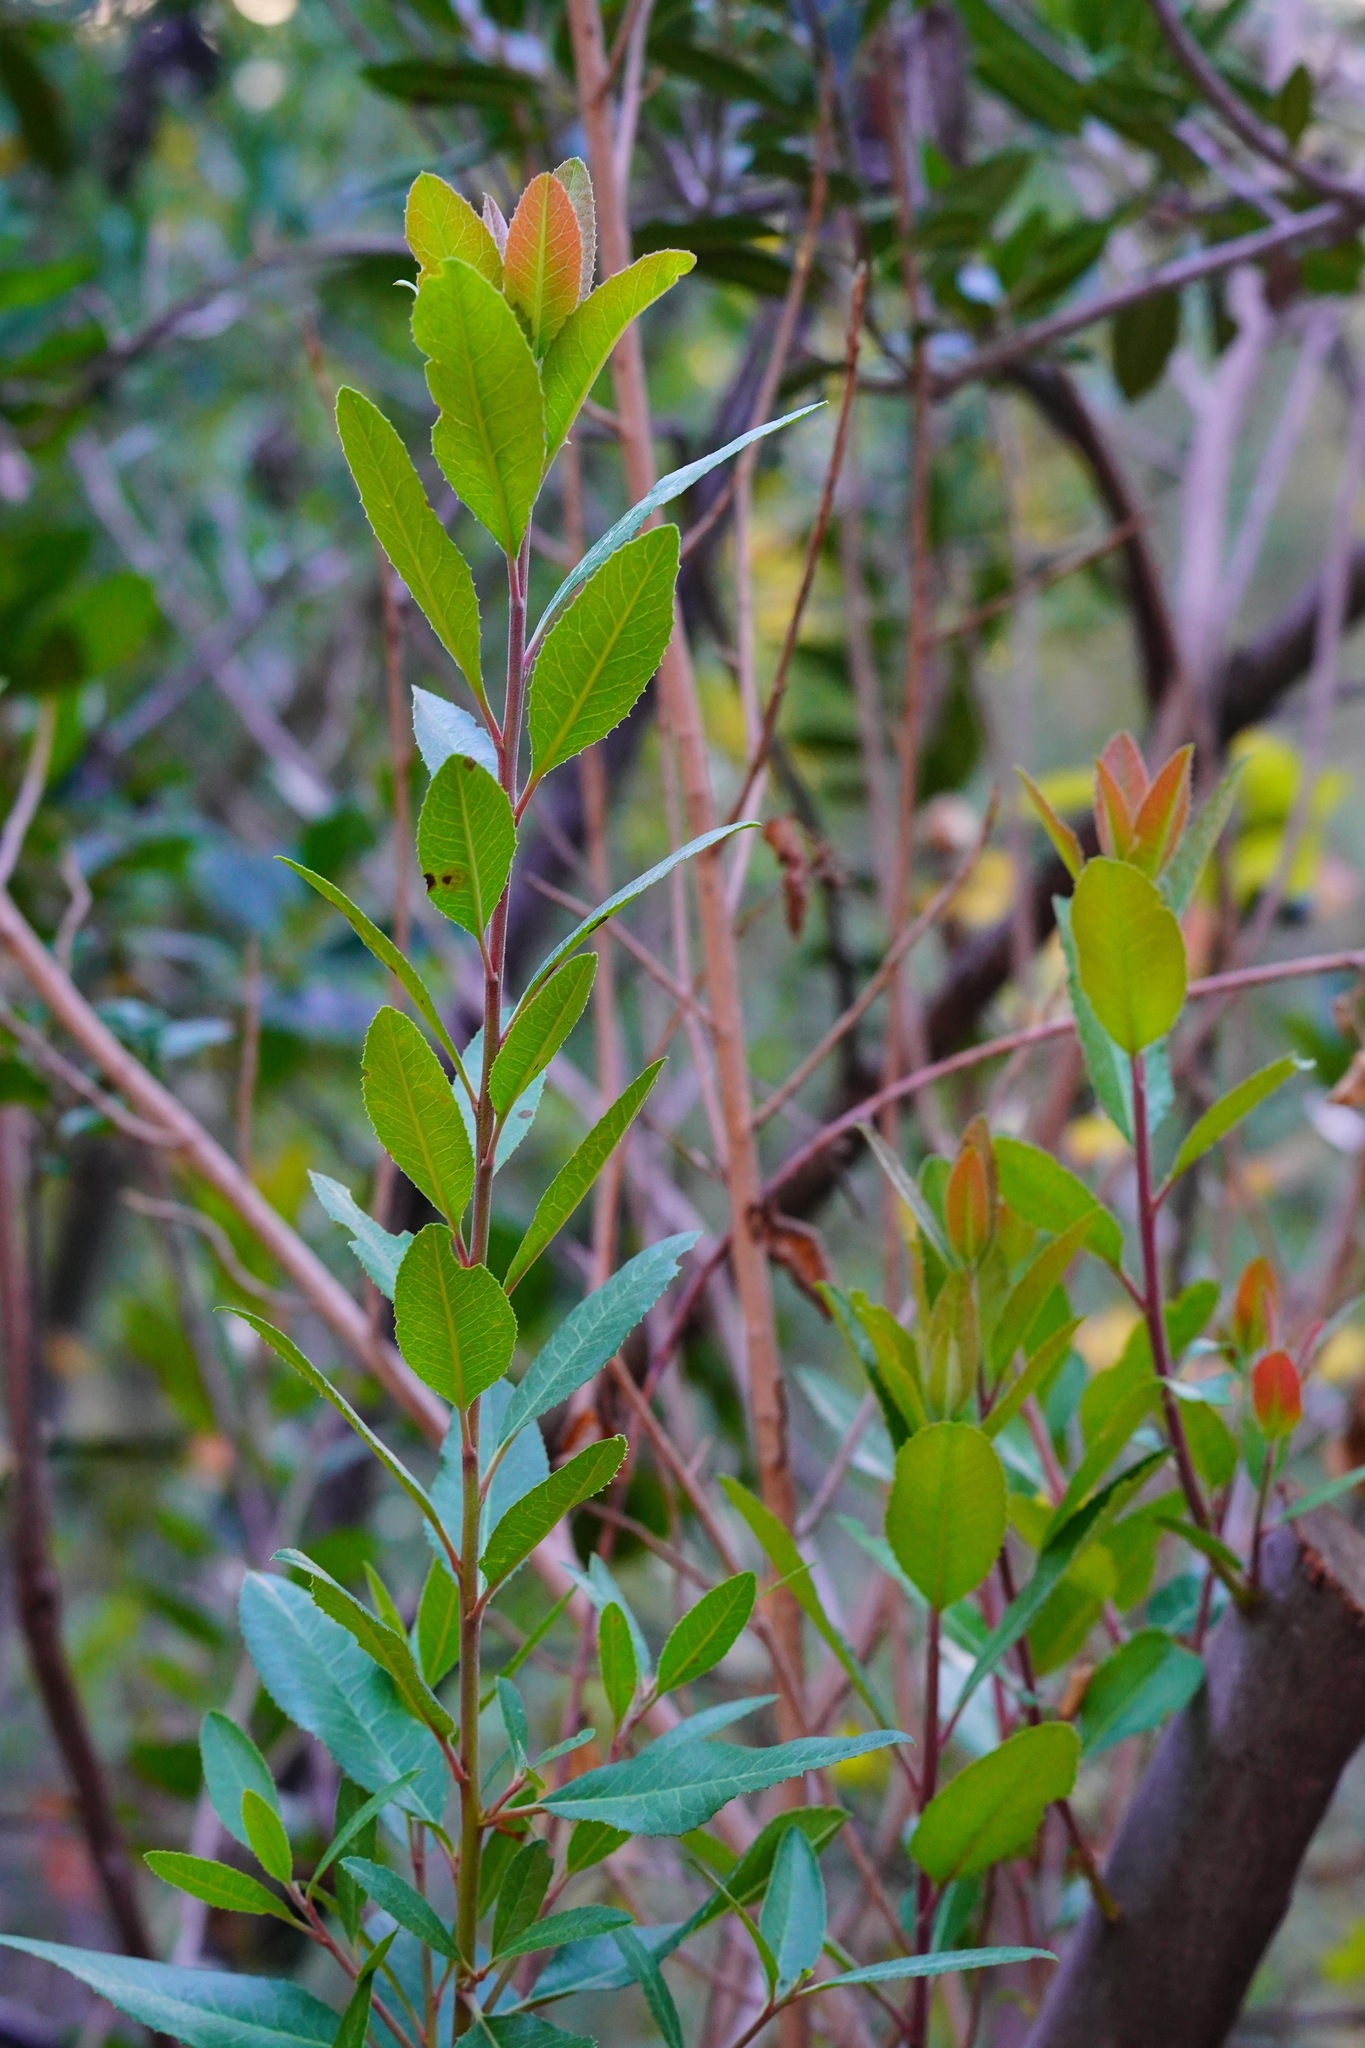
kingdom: Plantae
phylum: Tracheophyta
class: Magnoliopsida
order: Rosales
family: Rosaceae
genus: Heteromeles
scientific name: Heteromeles arbutifolia
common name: California-holly
